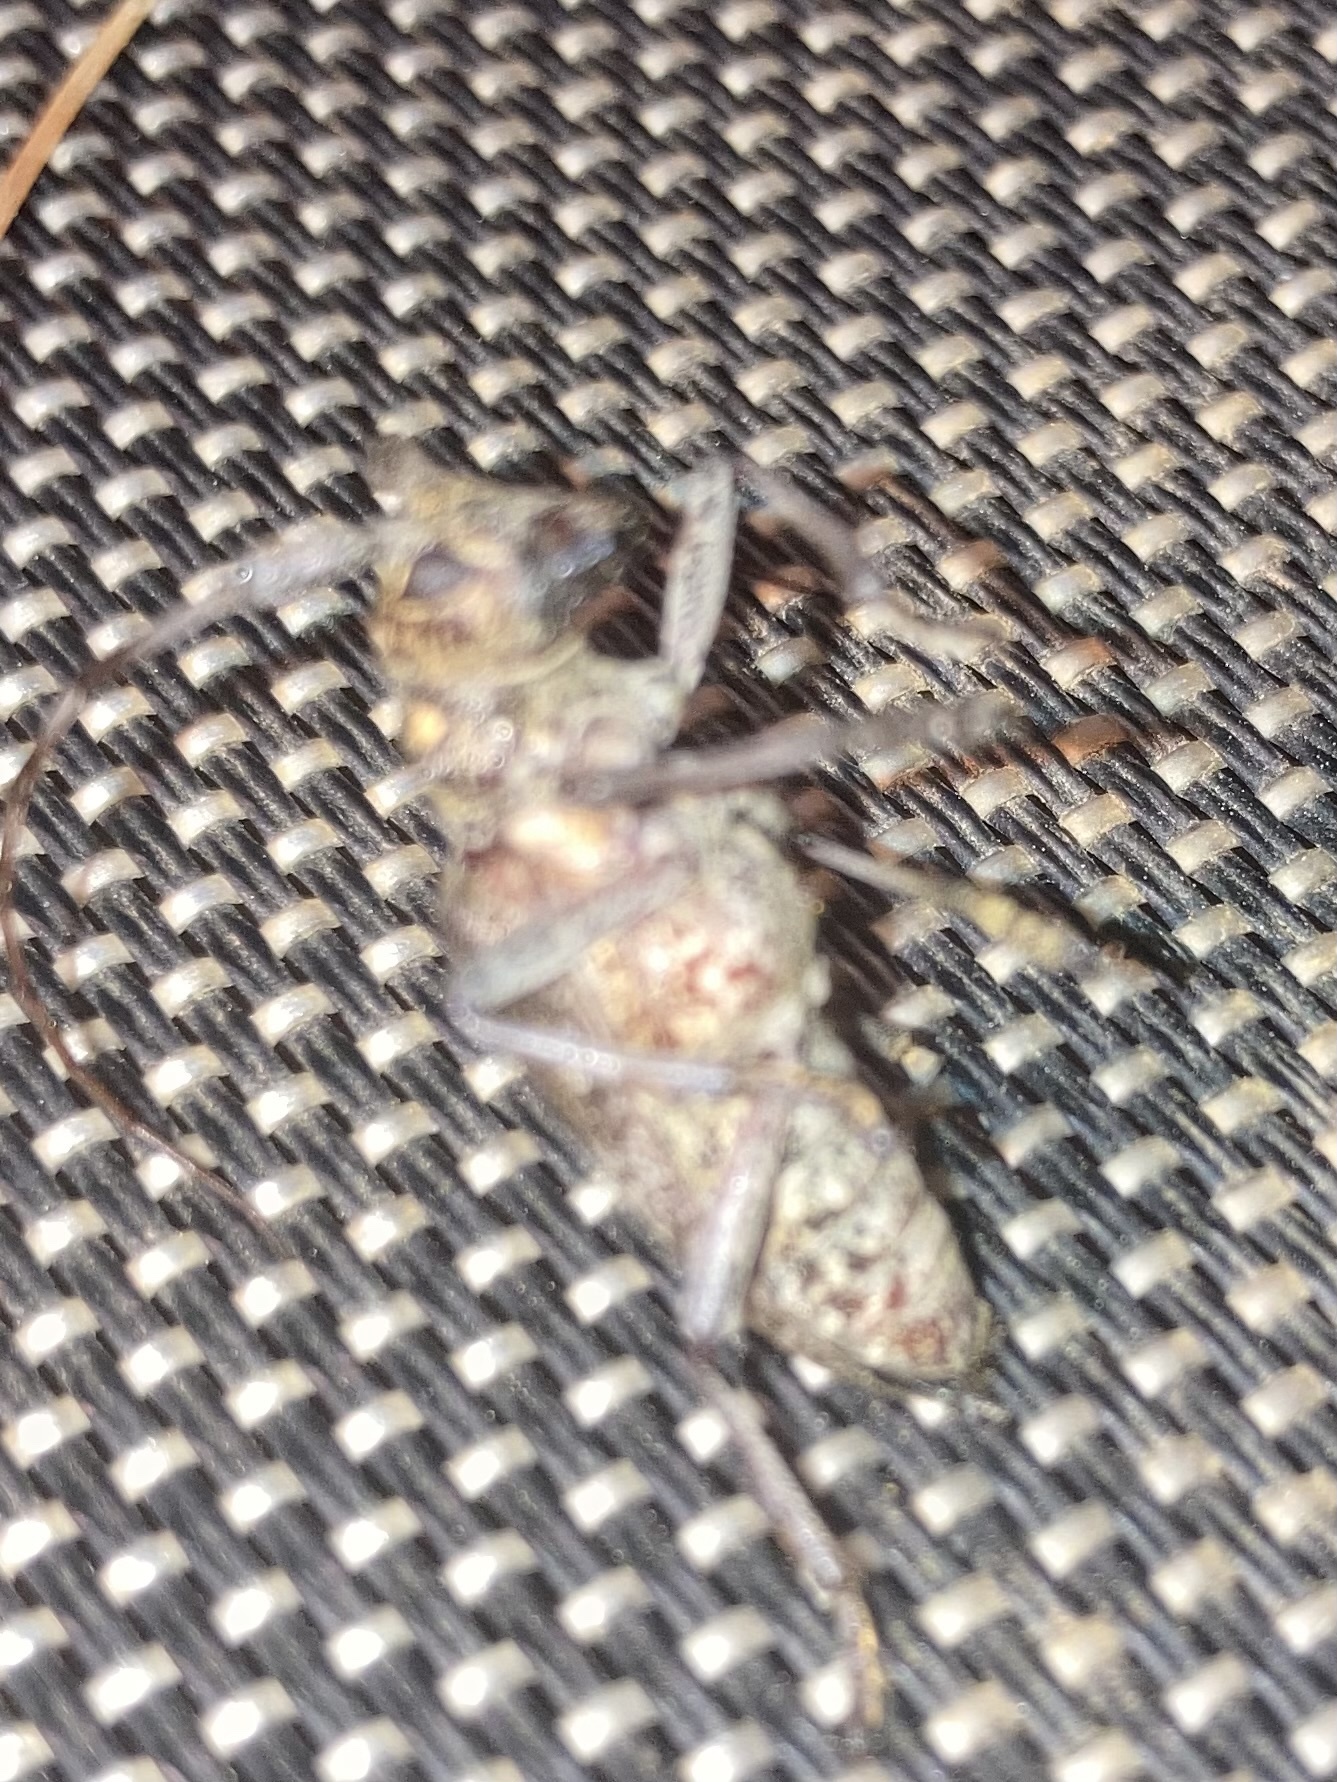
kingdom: Animalia
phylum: Arthropoda
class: Insecta
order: Coleoptera
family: Cerambycidae
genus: Monochamus
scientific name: Monochamus carolinensis
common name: Carolina pine sawyer
